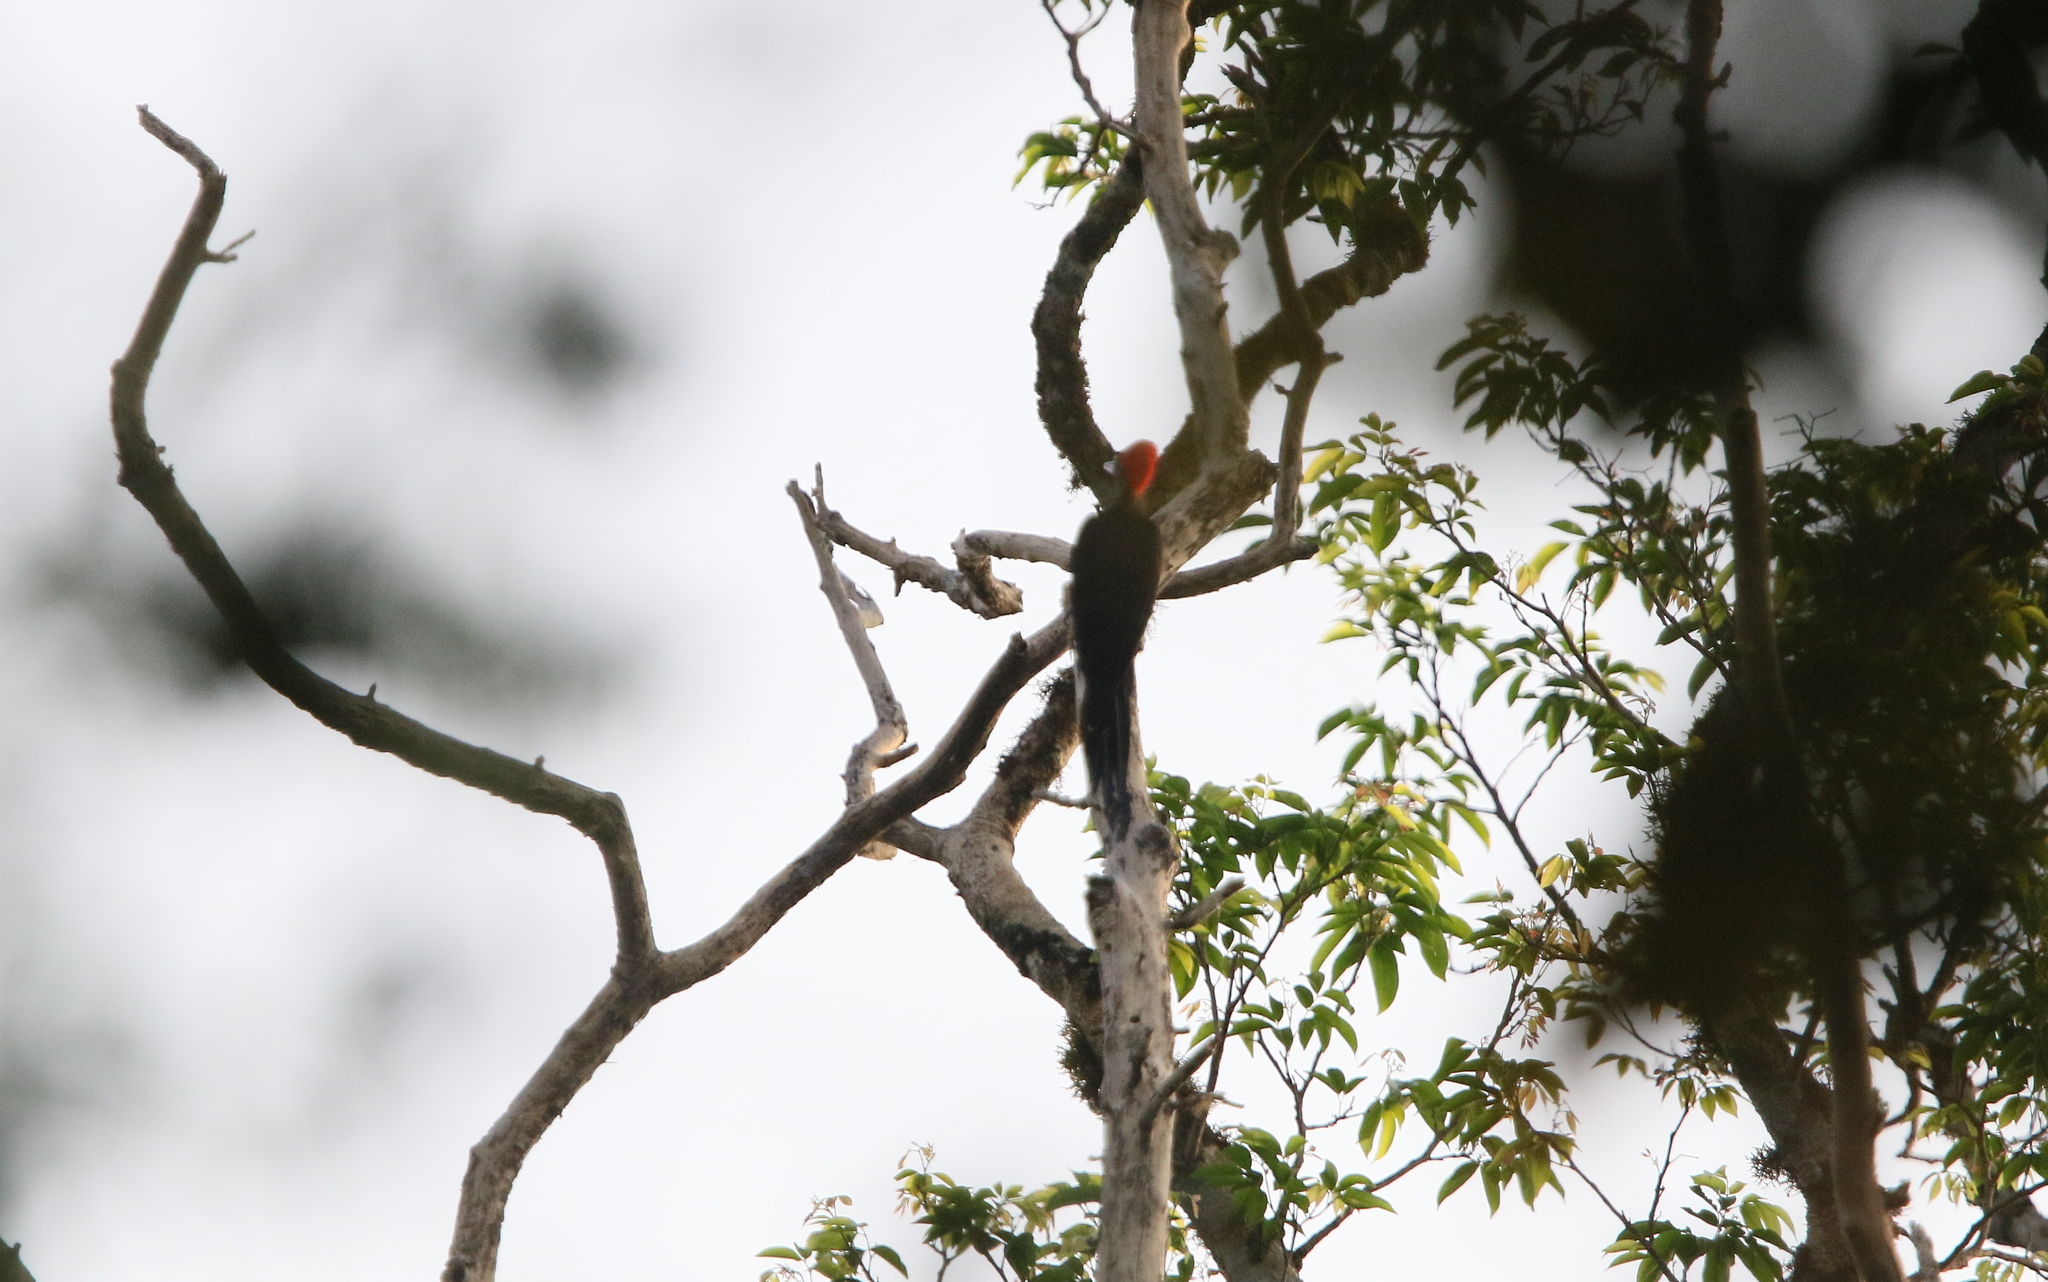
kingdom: Animalia
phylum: Chordata
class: Aves
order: Piciformes
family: Picidae
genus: Dryocopus
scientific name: Dryocopus javensis
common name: White-bellied woodpecker
